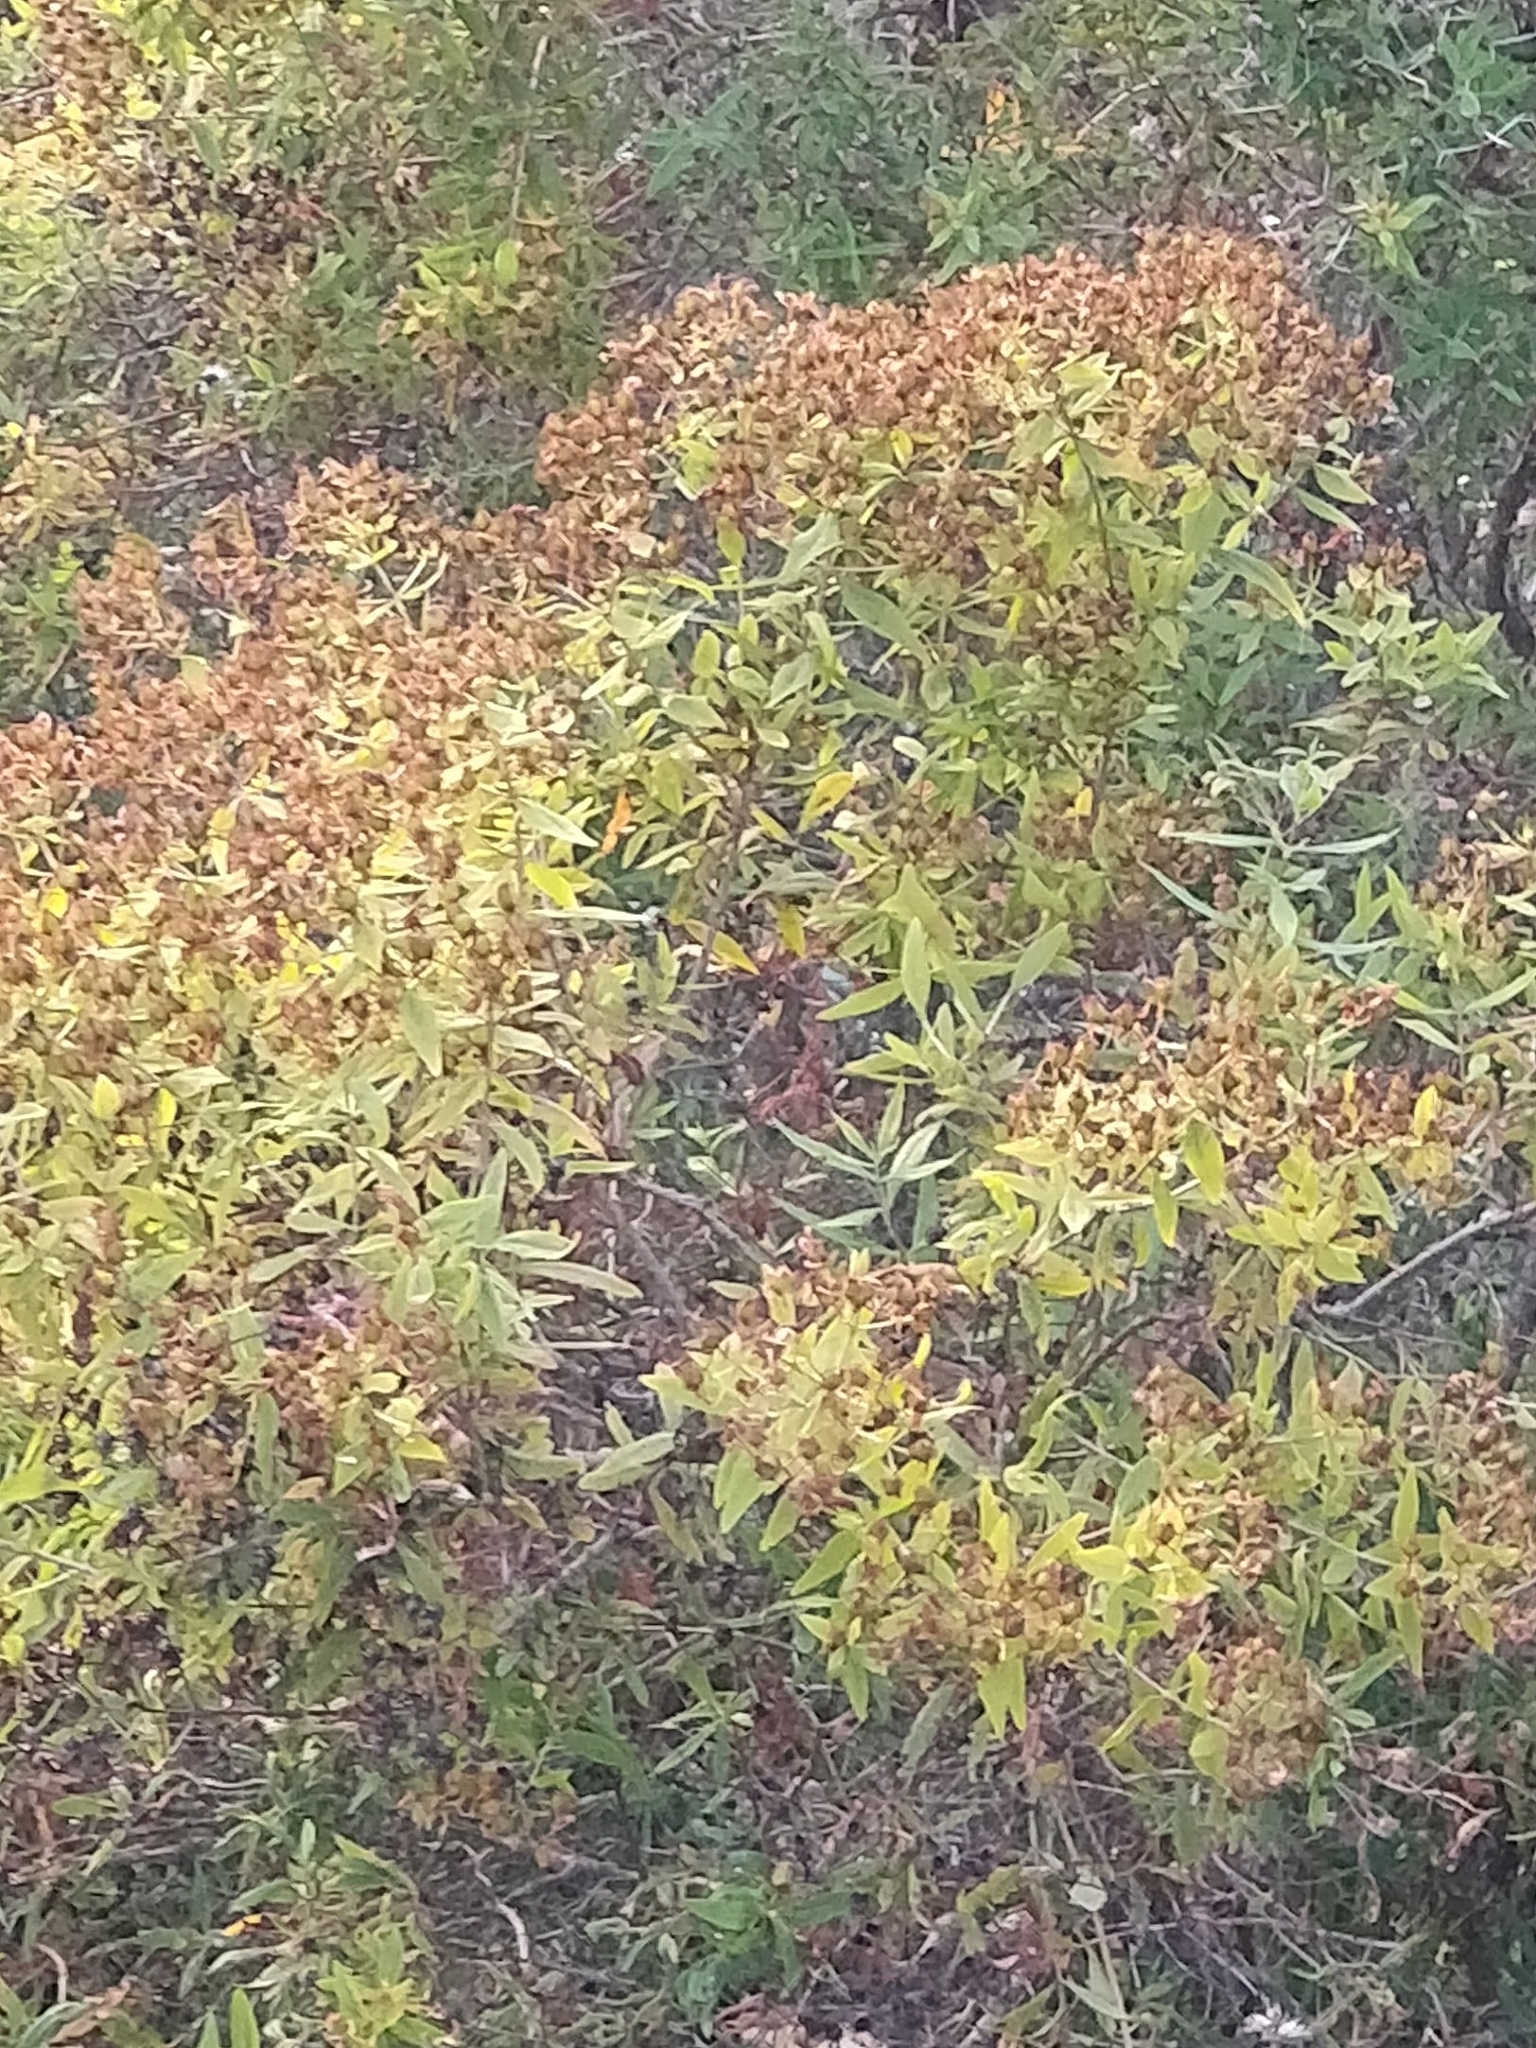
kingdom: Plantae
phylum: Tracheophyta
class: Magnoliopsida
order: Malpighiales
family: Hypericaceae
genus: Hypericum
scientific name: Hypericum canariense
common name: Canary island st. johnswort
